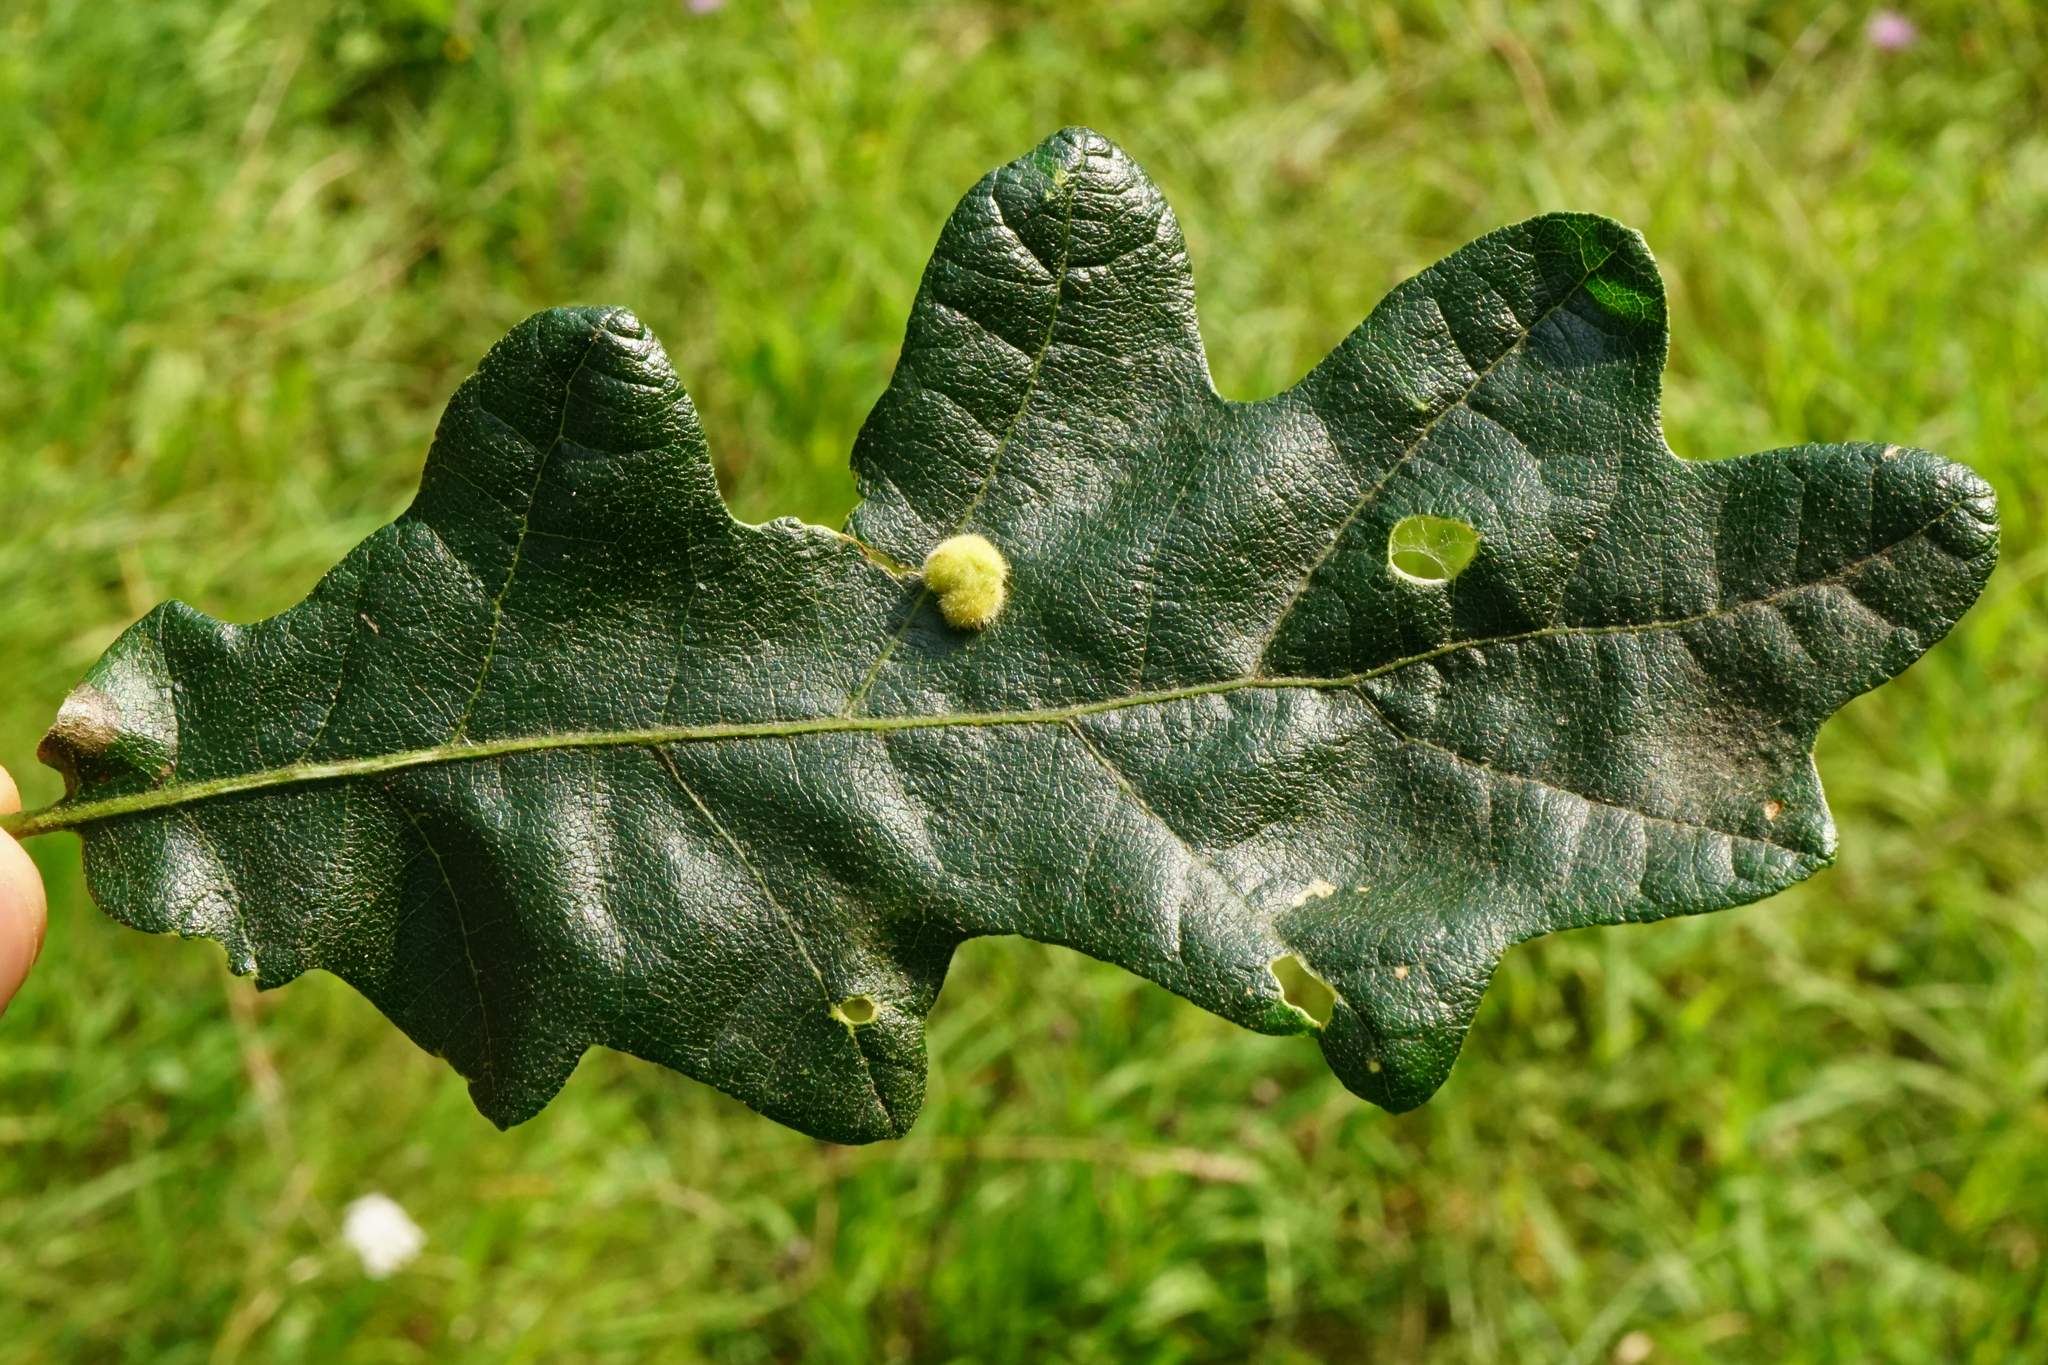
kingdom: Plantae
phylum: Tracheophyta
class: Magnoliopsida
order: Fagales
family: Fagaceae
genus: Quercus
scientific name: Quercus cerris
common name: Turkey oak
